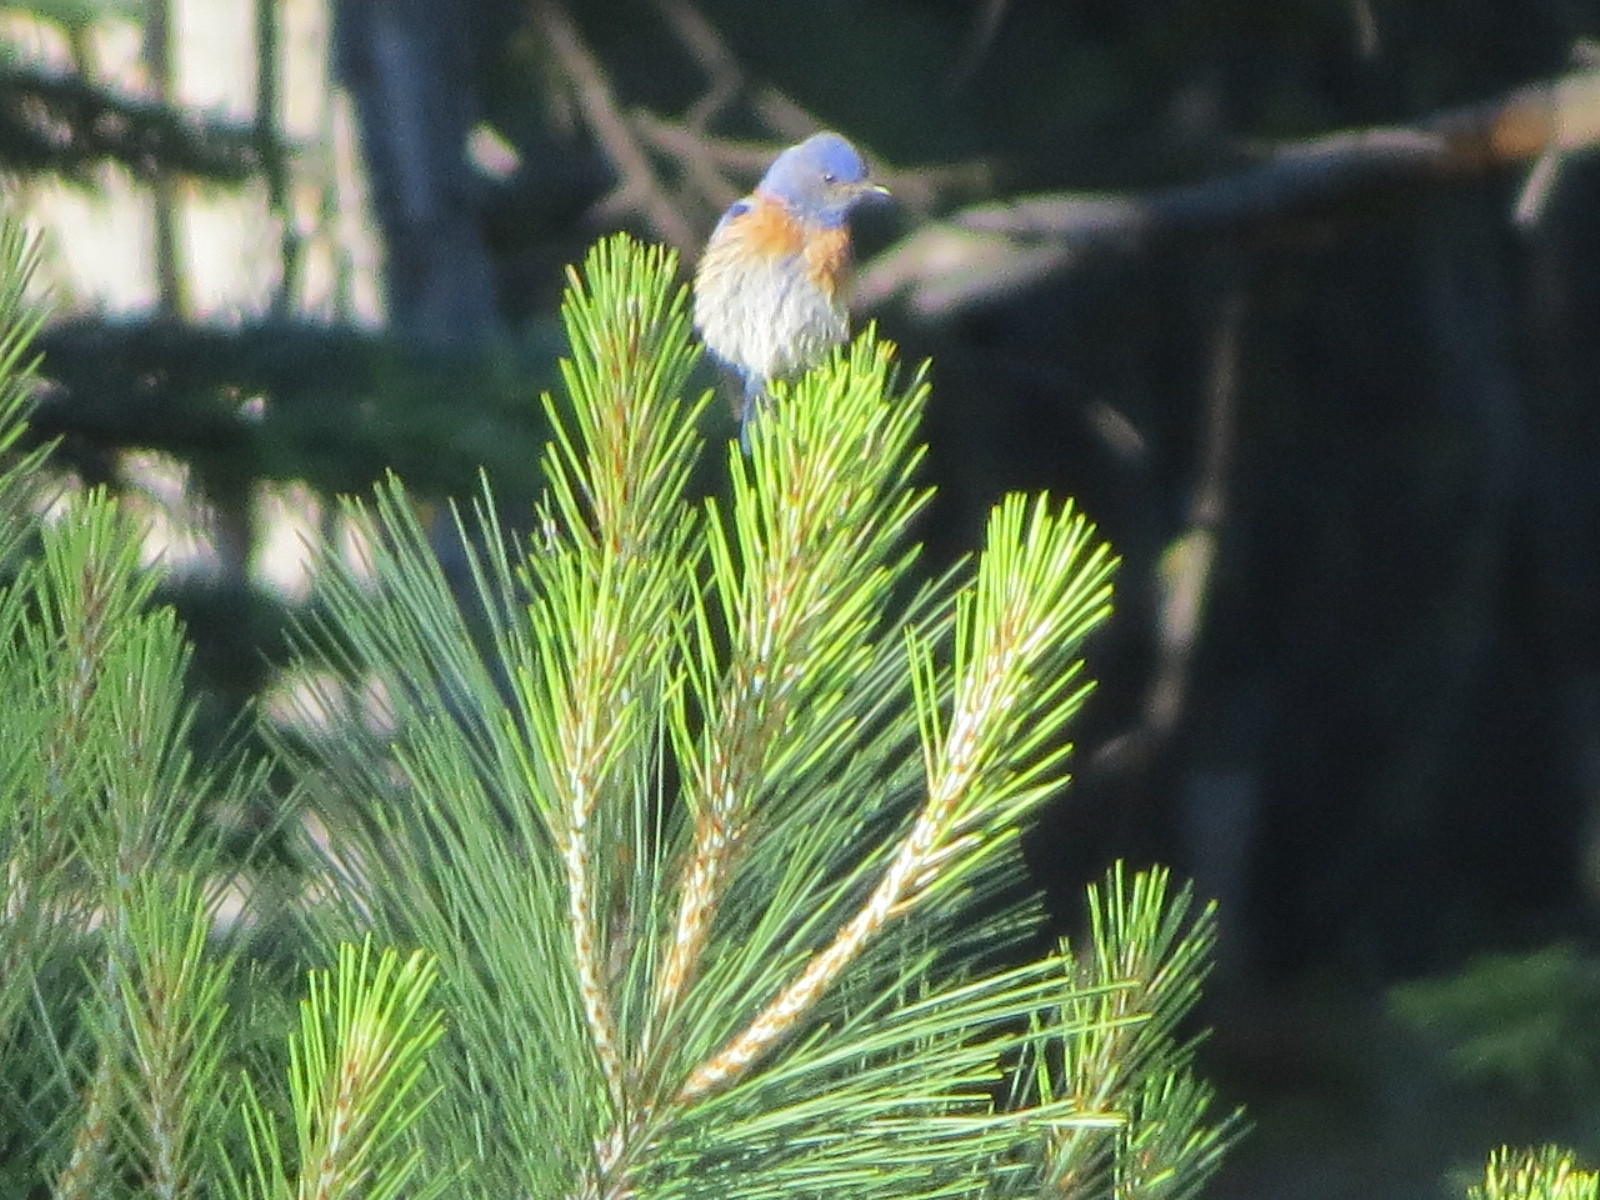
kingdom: Animalia
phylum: Chordata
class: Aves
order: Passeriformes
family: Turdidae
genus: Sialia
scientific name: Sialia mexicana
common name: Western bluebird
